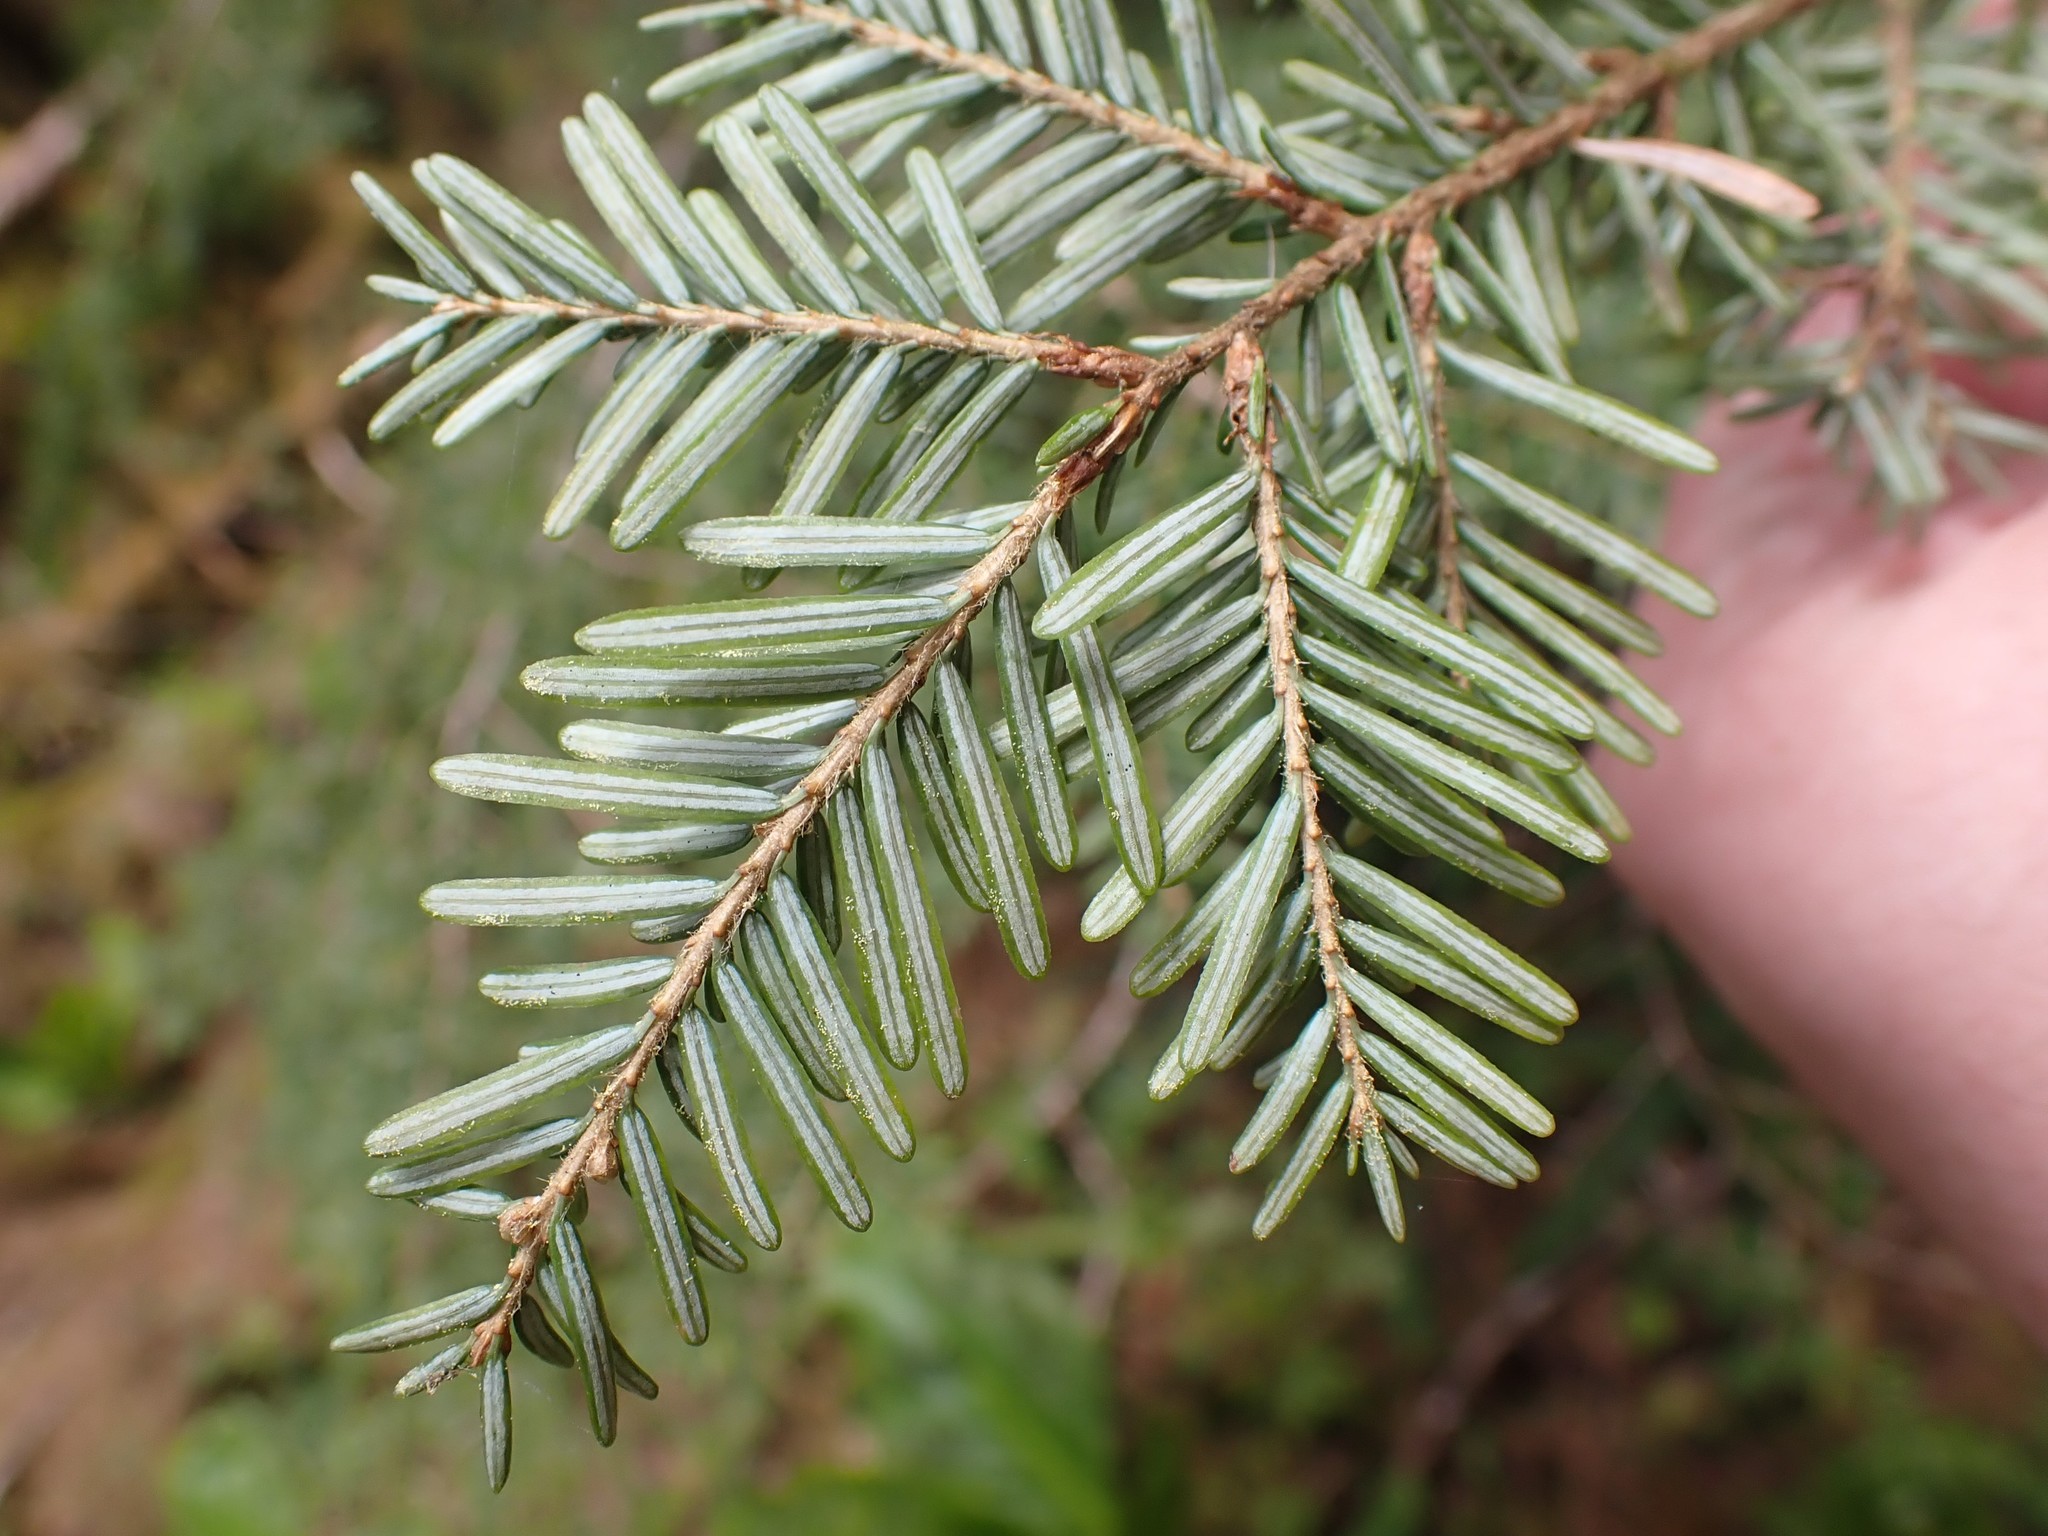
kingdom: Plantae
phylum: Tracheophyta
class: Pinopsida
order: Pinales
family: Pinaceae
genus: Tsuga
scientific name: Tsuga heterophylla
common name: Western hemlock
